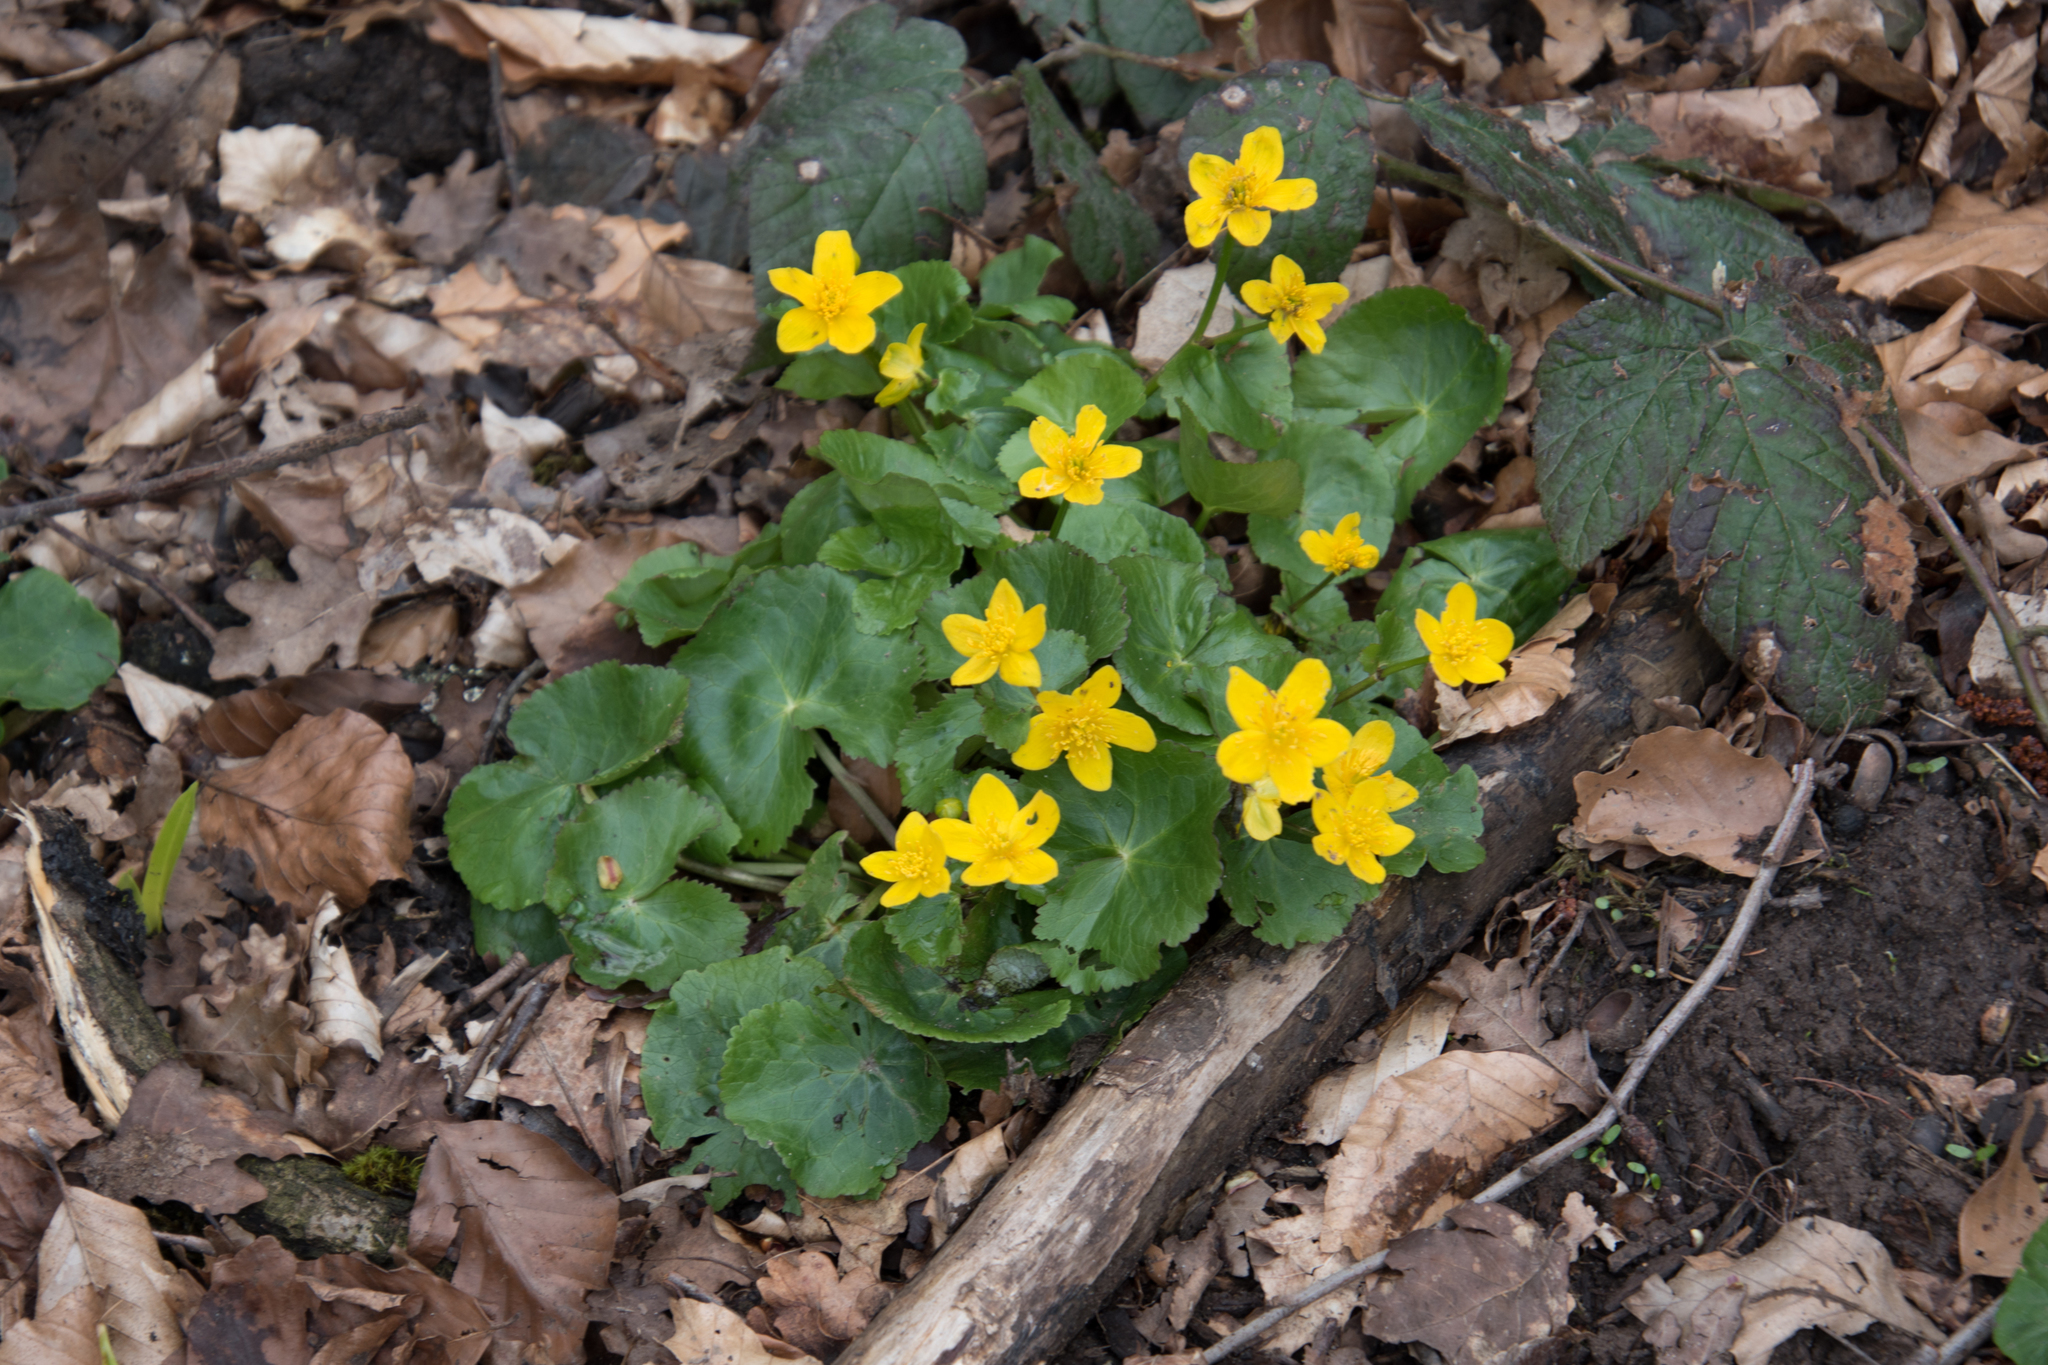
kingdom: Plantae
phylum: Tracheophyta
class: Magnoliopsida
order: Ranunculales
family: Ranunculaceae
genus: Caltha
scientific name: Caltha palustris
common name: Marsh marigold
